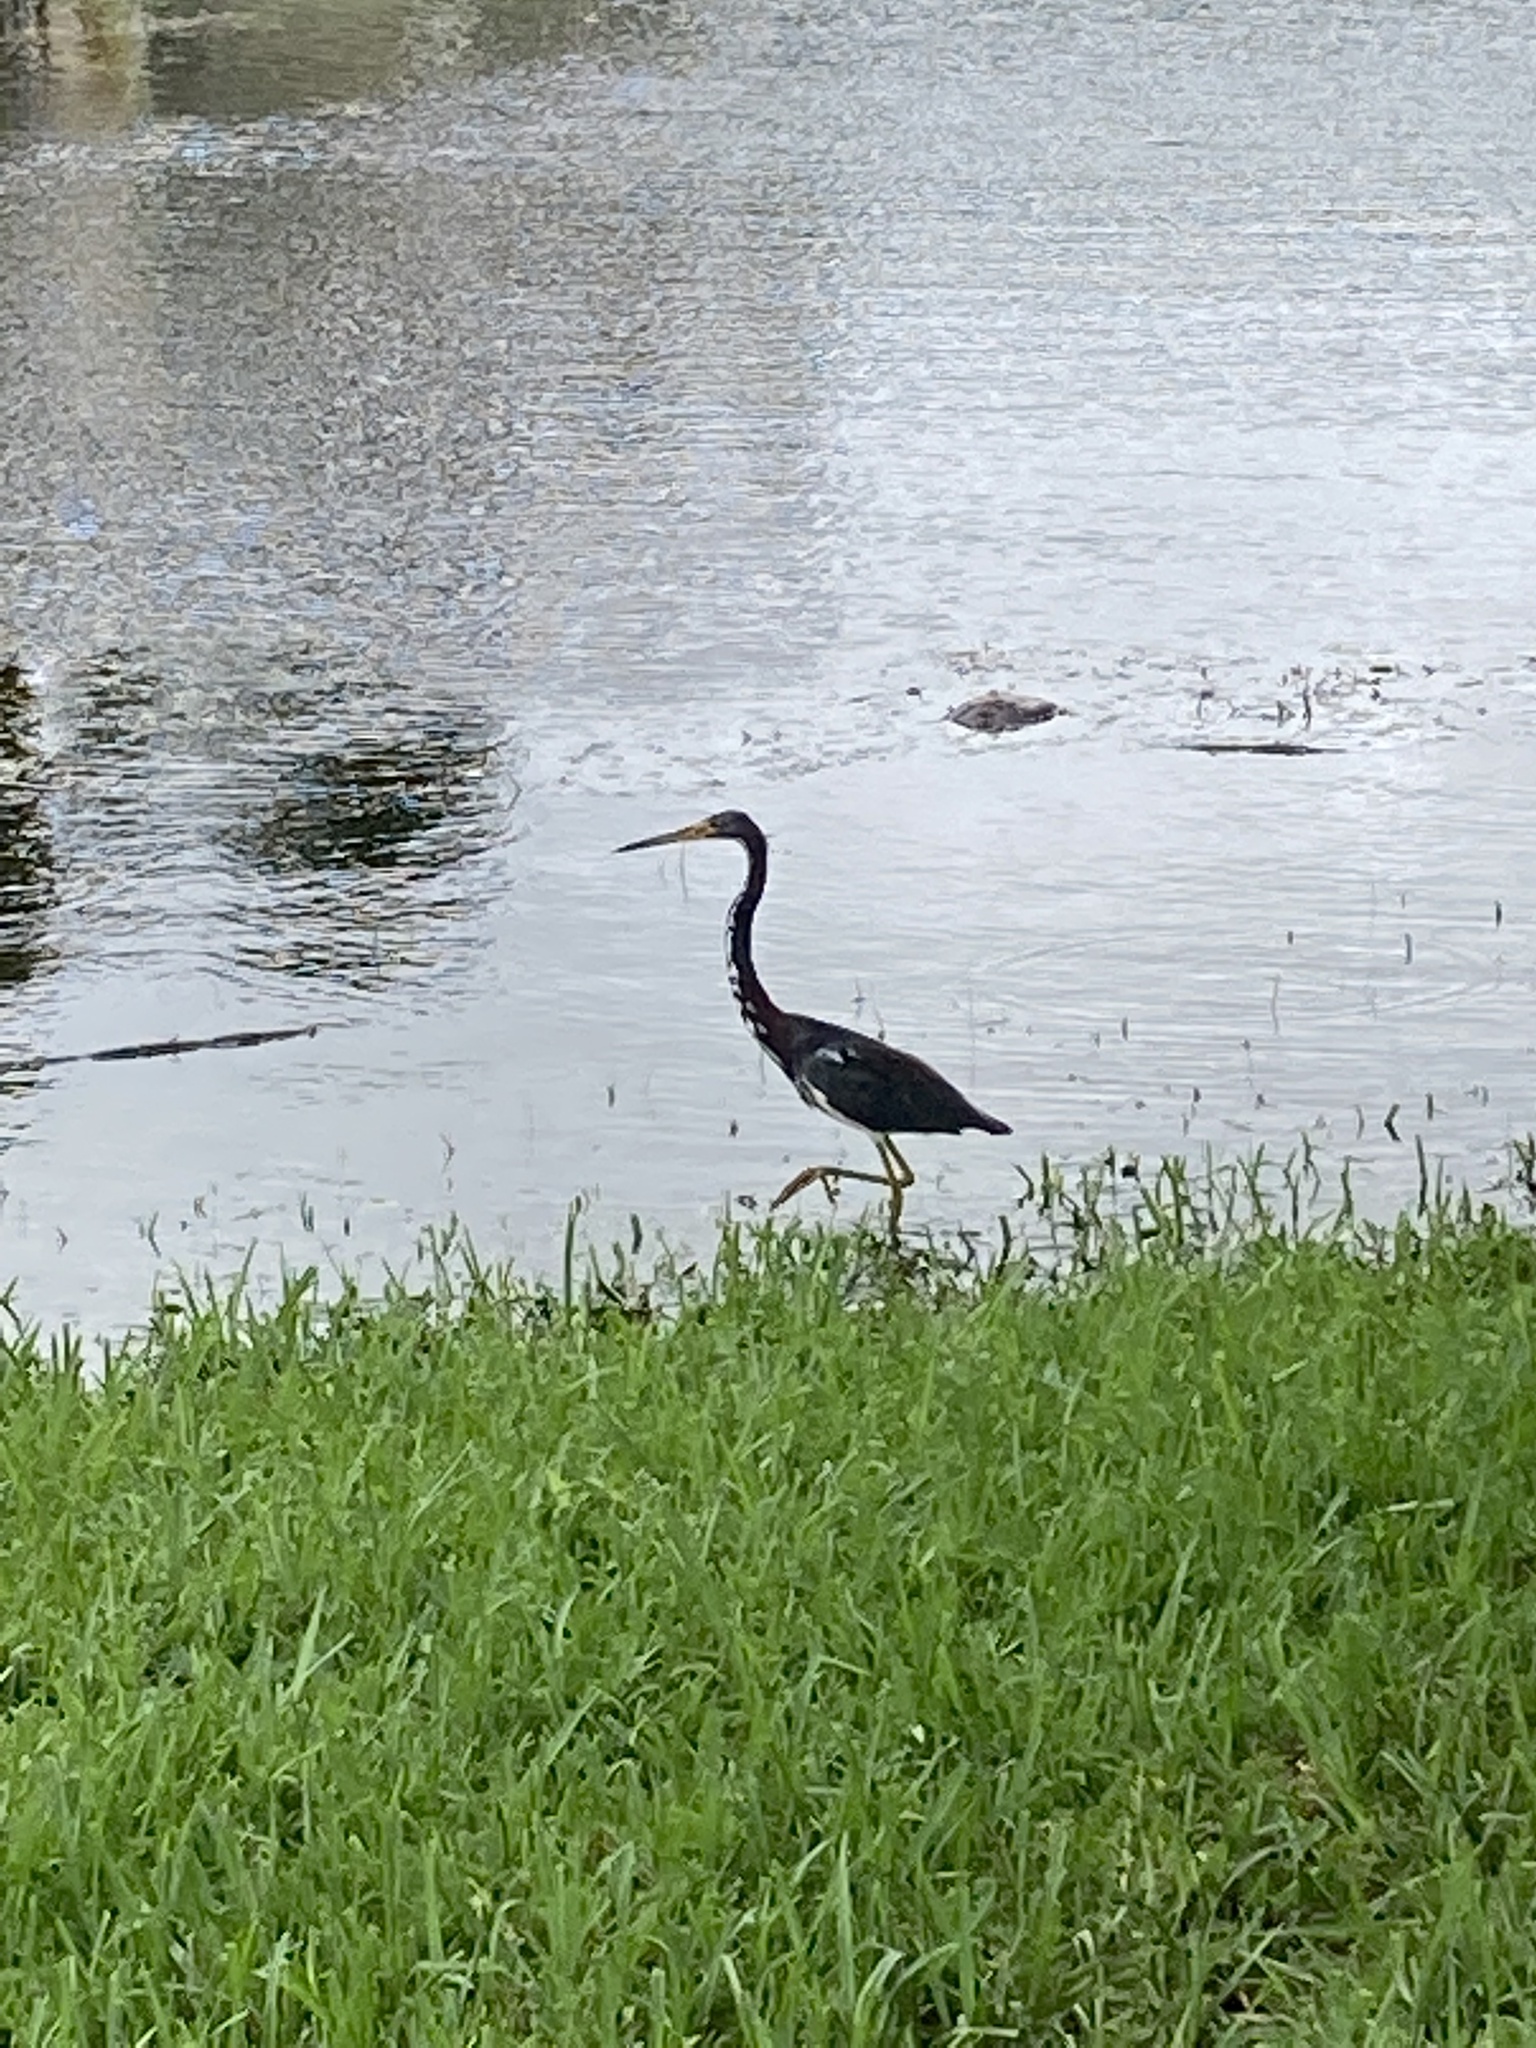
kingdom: Animalia
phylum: Chordata
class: Aves
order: Pelecaniformes
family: Ardeidae
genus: Egretta
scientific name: Egretta tricolor
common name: Tricolored heron
